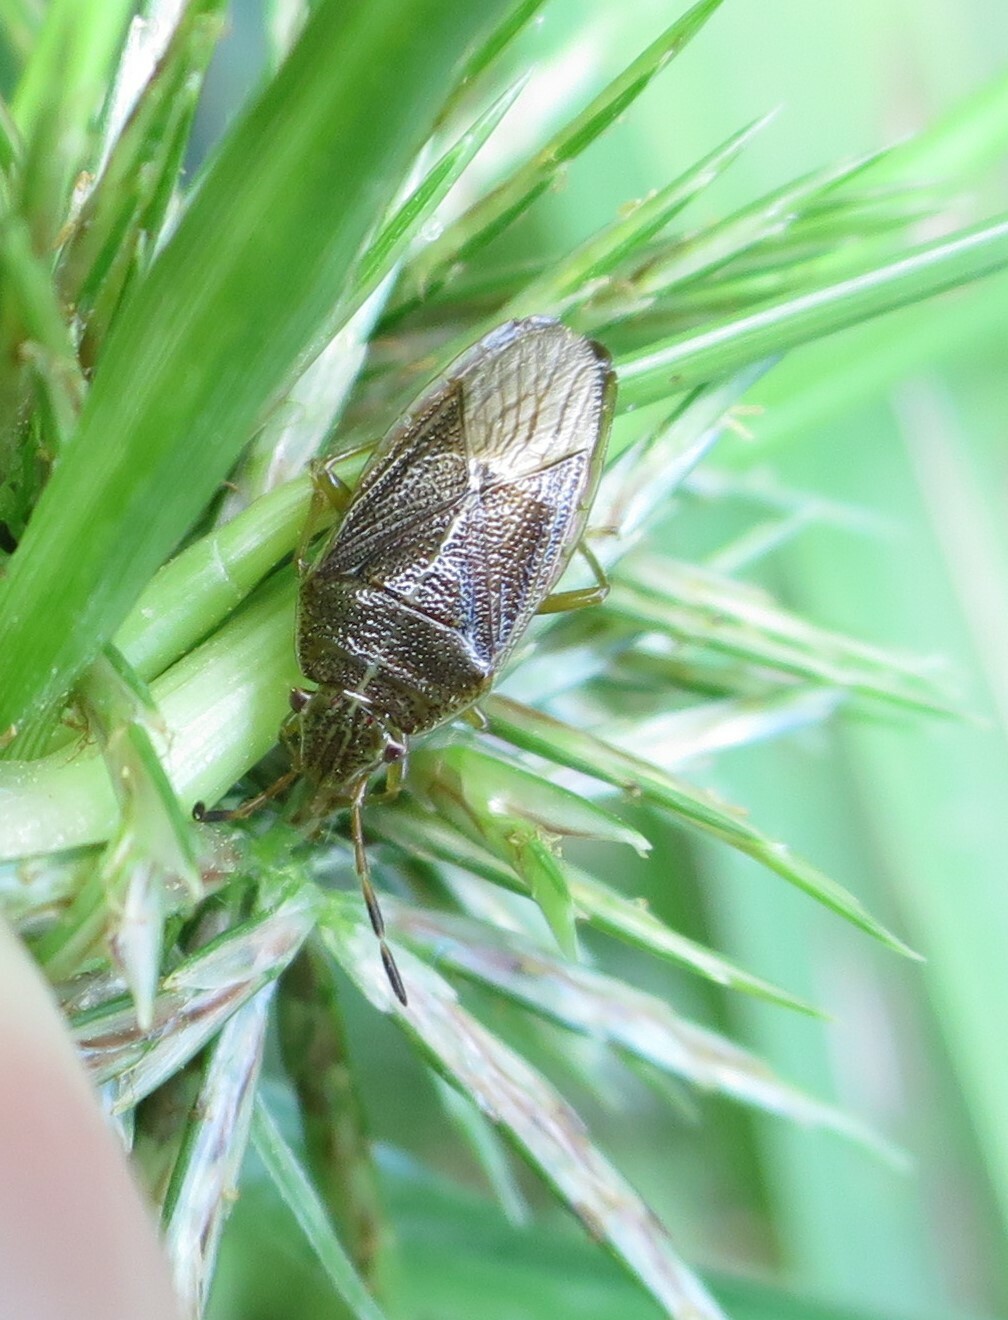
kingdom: Animalia
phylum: Arthropoda
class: Insecta
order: Hemiptera
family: Acanthosomatidae
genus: Rhopalimorpha
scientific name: Rhopalimorpha obscura
